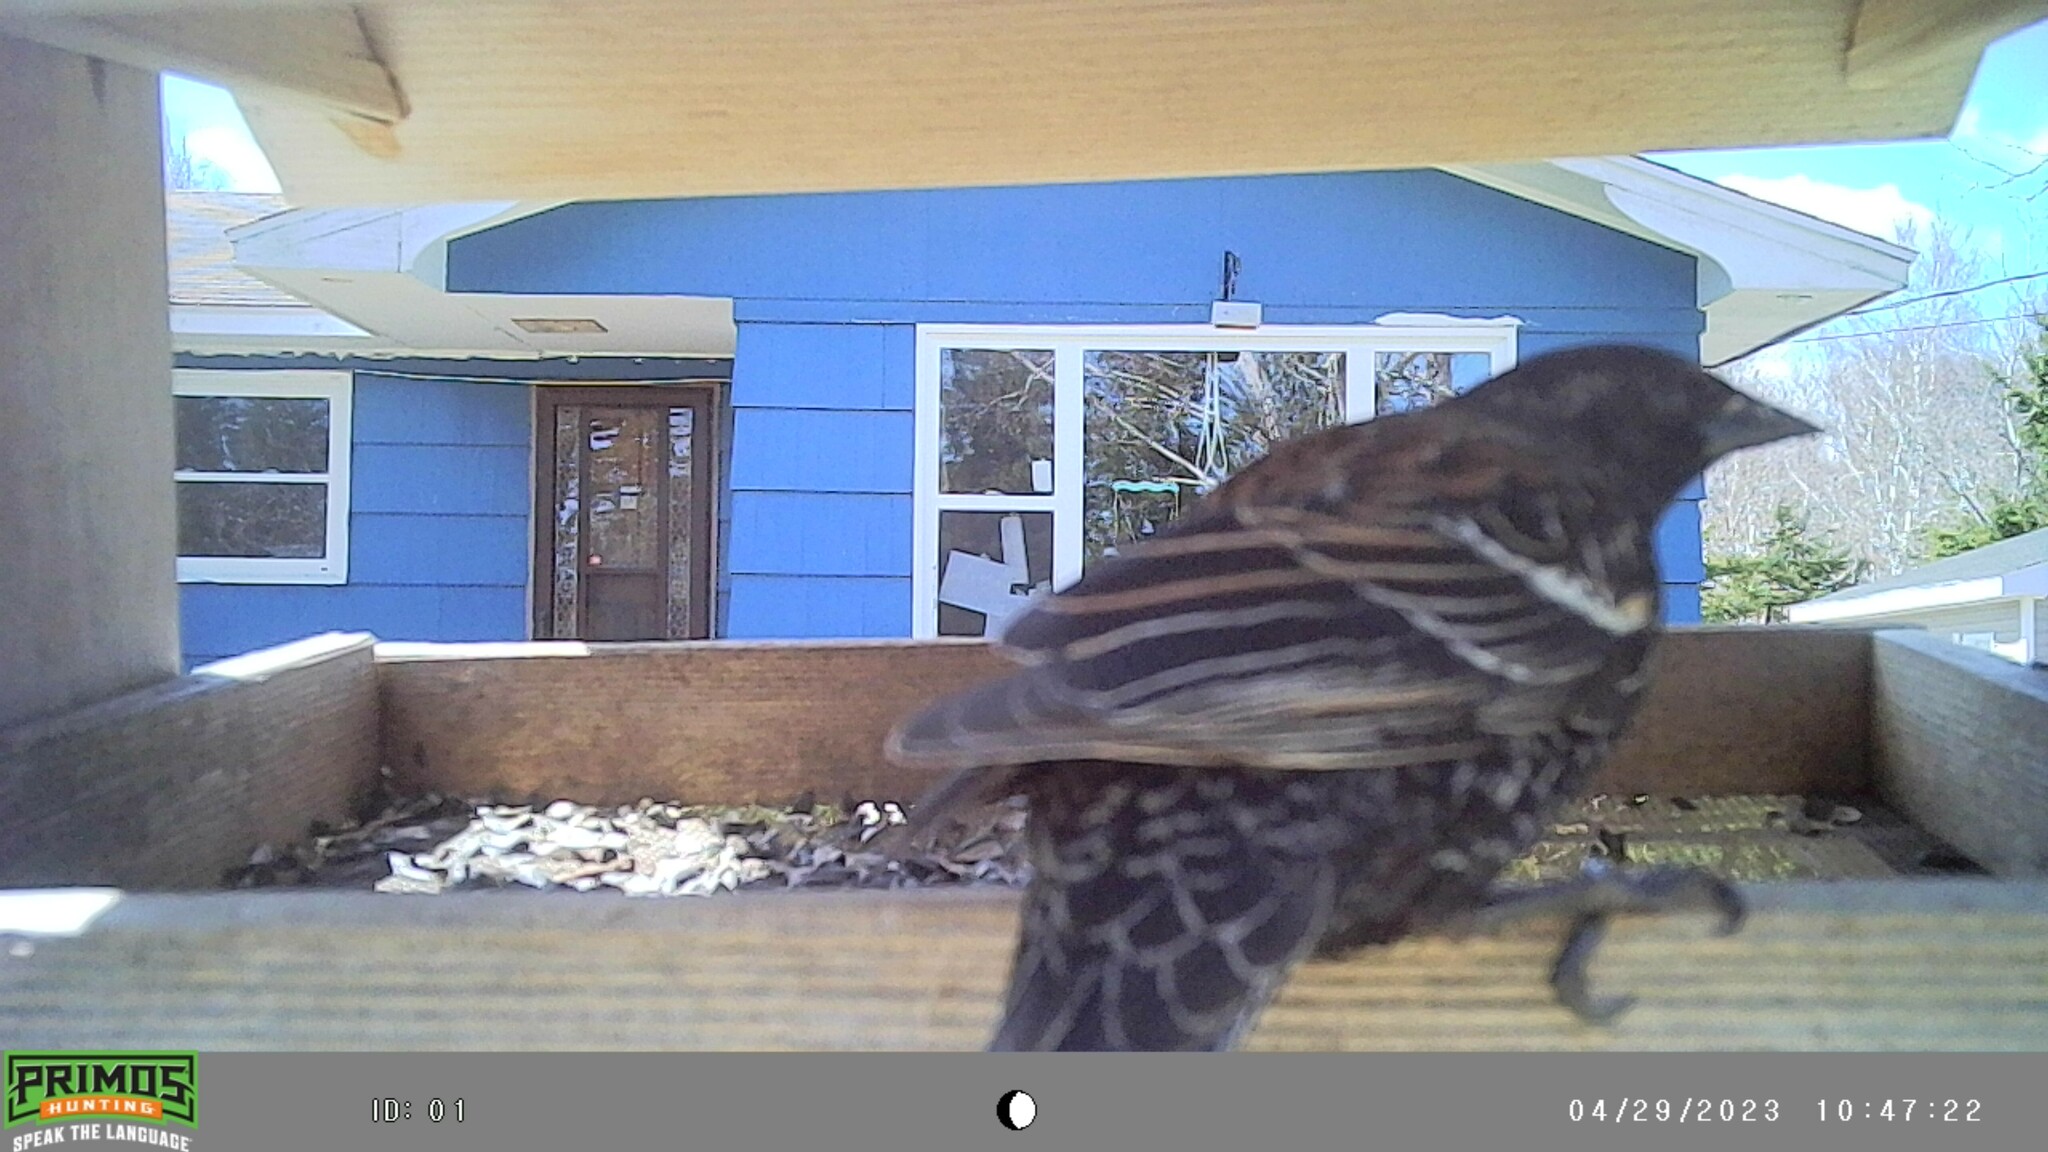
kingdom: Animalia
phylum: Chordata
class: Aves
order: Passeriformes
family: Icteridae
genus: Agelaius
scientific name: Agelaius phoeniceus
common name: Red-winged blackbird
